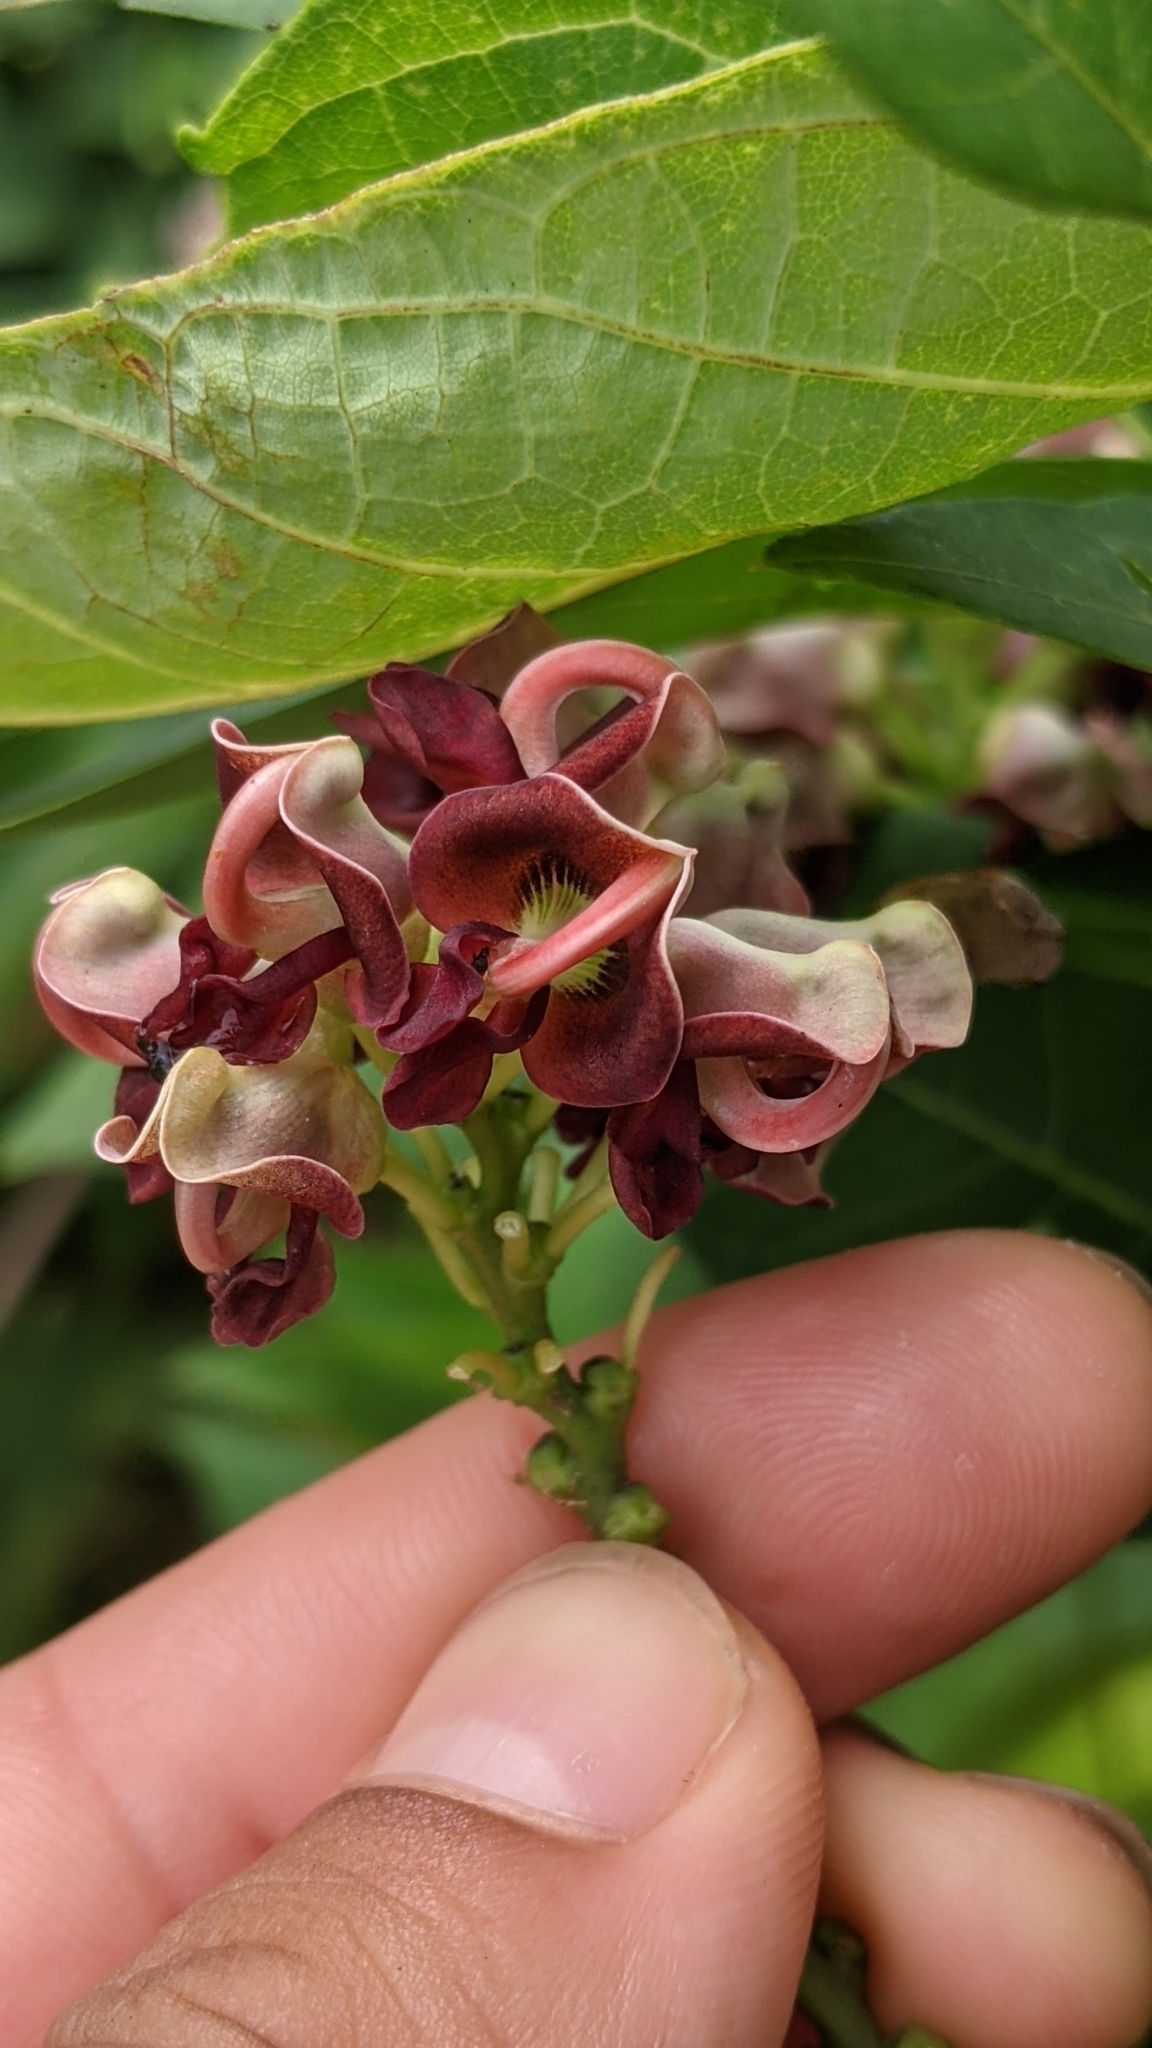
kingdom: Plantae
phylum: Tracheophyta
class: Magnoliopsida
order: Fabales
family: Fabaceae
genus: Apios
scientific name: Apios americana
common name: American potato-bean
